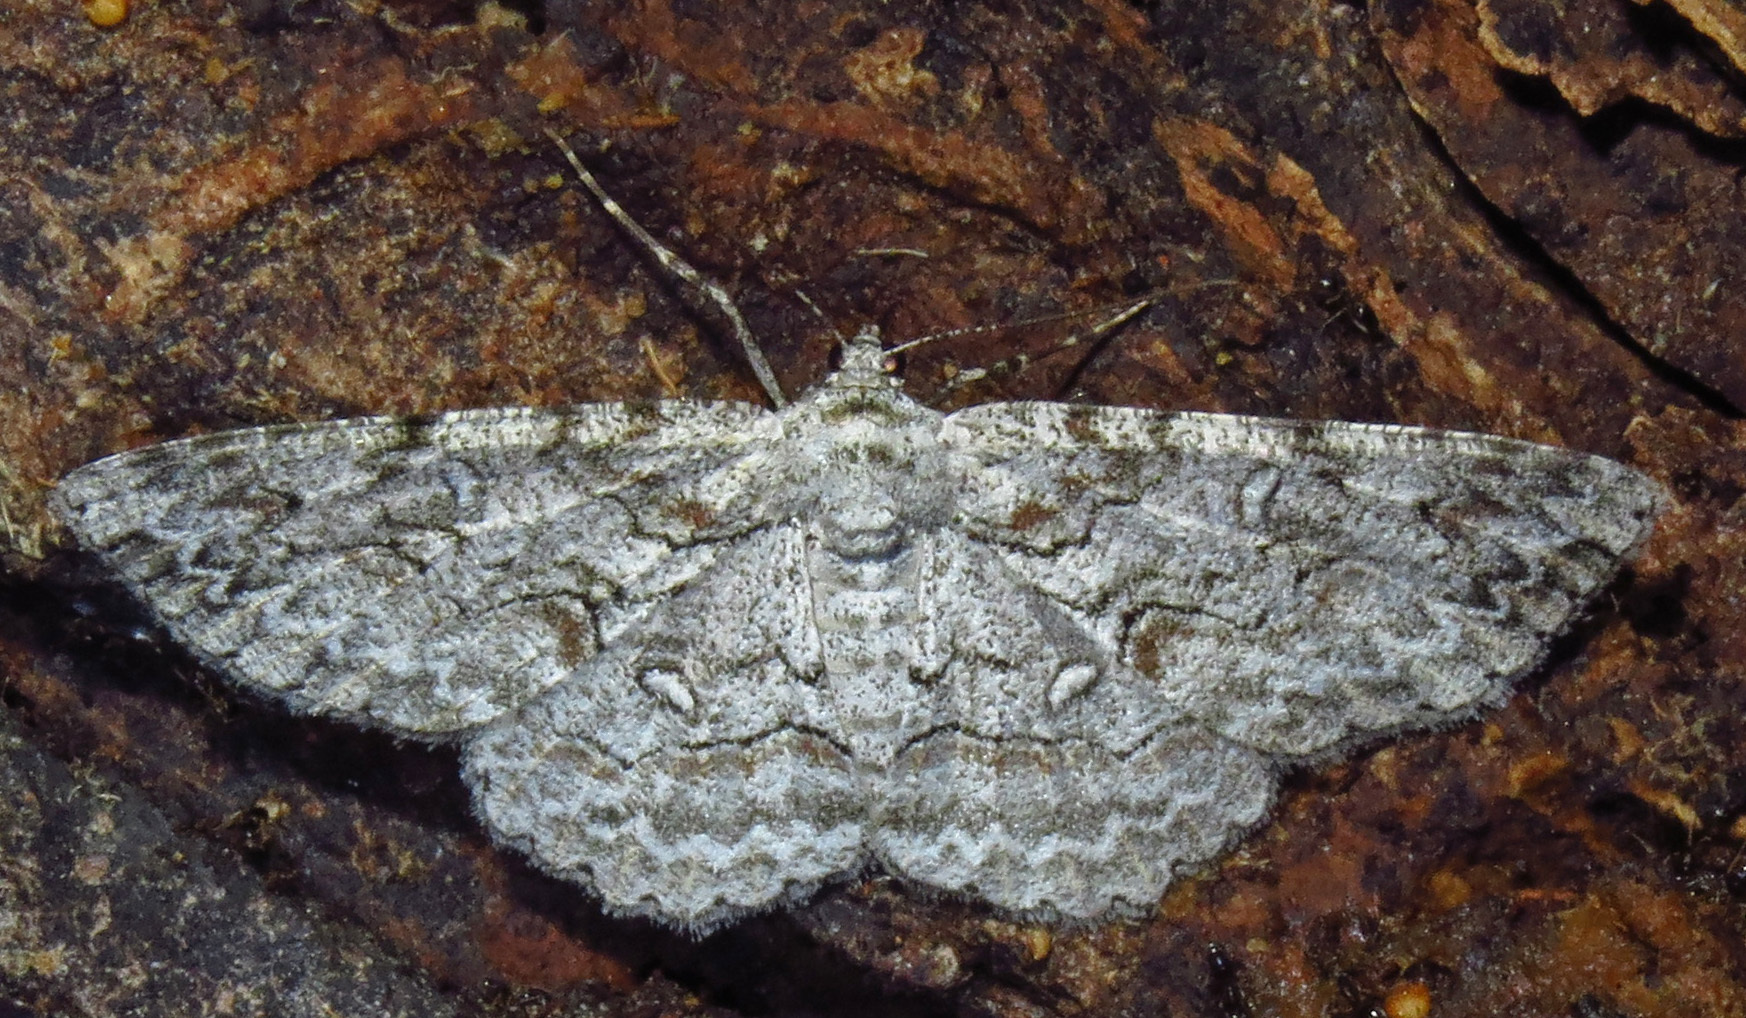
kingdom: Animalia
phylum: Arthropoda
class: Insecta
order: Lepidoptera
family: Geometridae
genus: Iridopsis
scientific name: Iridopsis defectaria
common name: Brown-shaded gray
